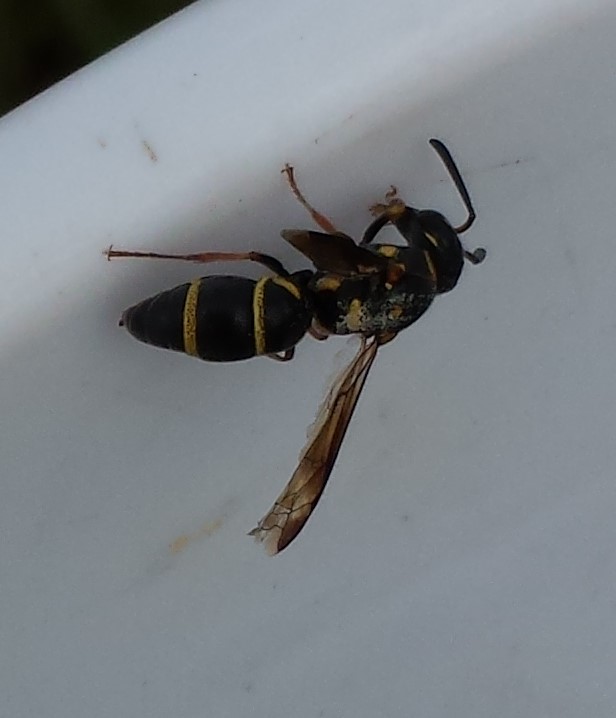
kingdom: Animalia
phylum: Arthropoda
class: Insecta
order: Hymenoptera
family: Eumenidae
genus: Parancistrocerus
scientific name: Parancistrocerus fulvipes
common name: Potter wasp
